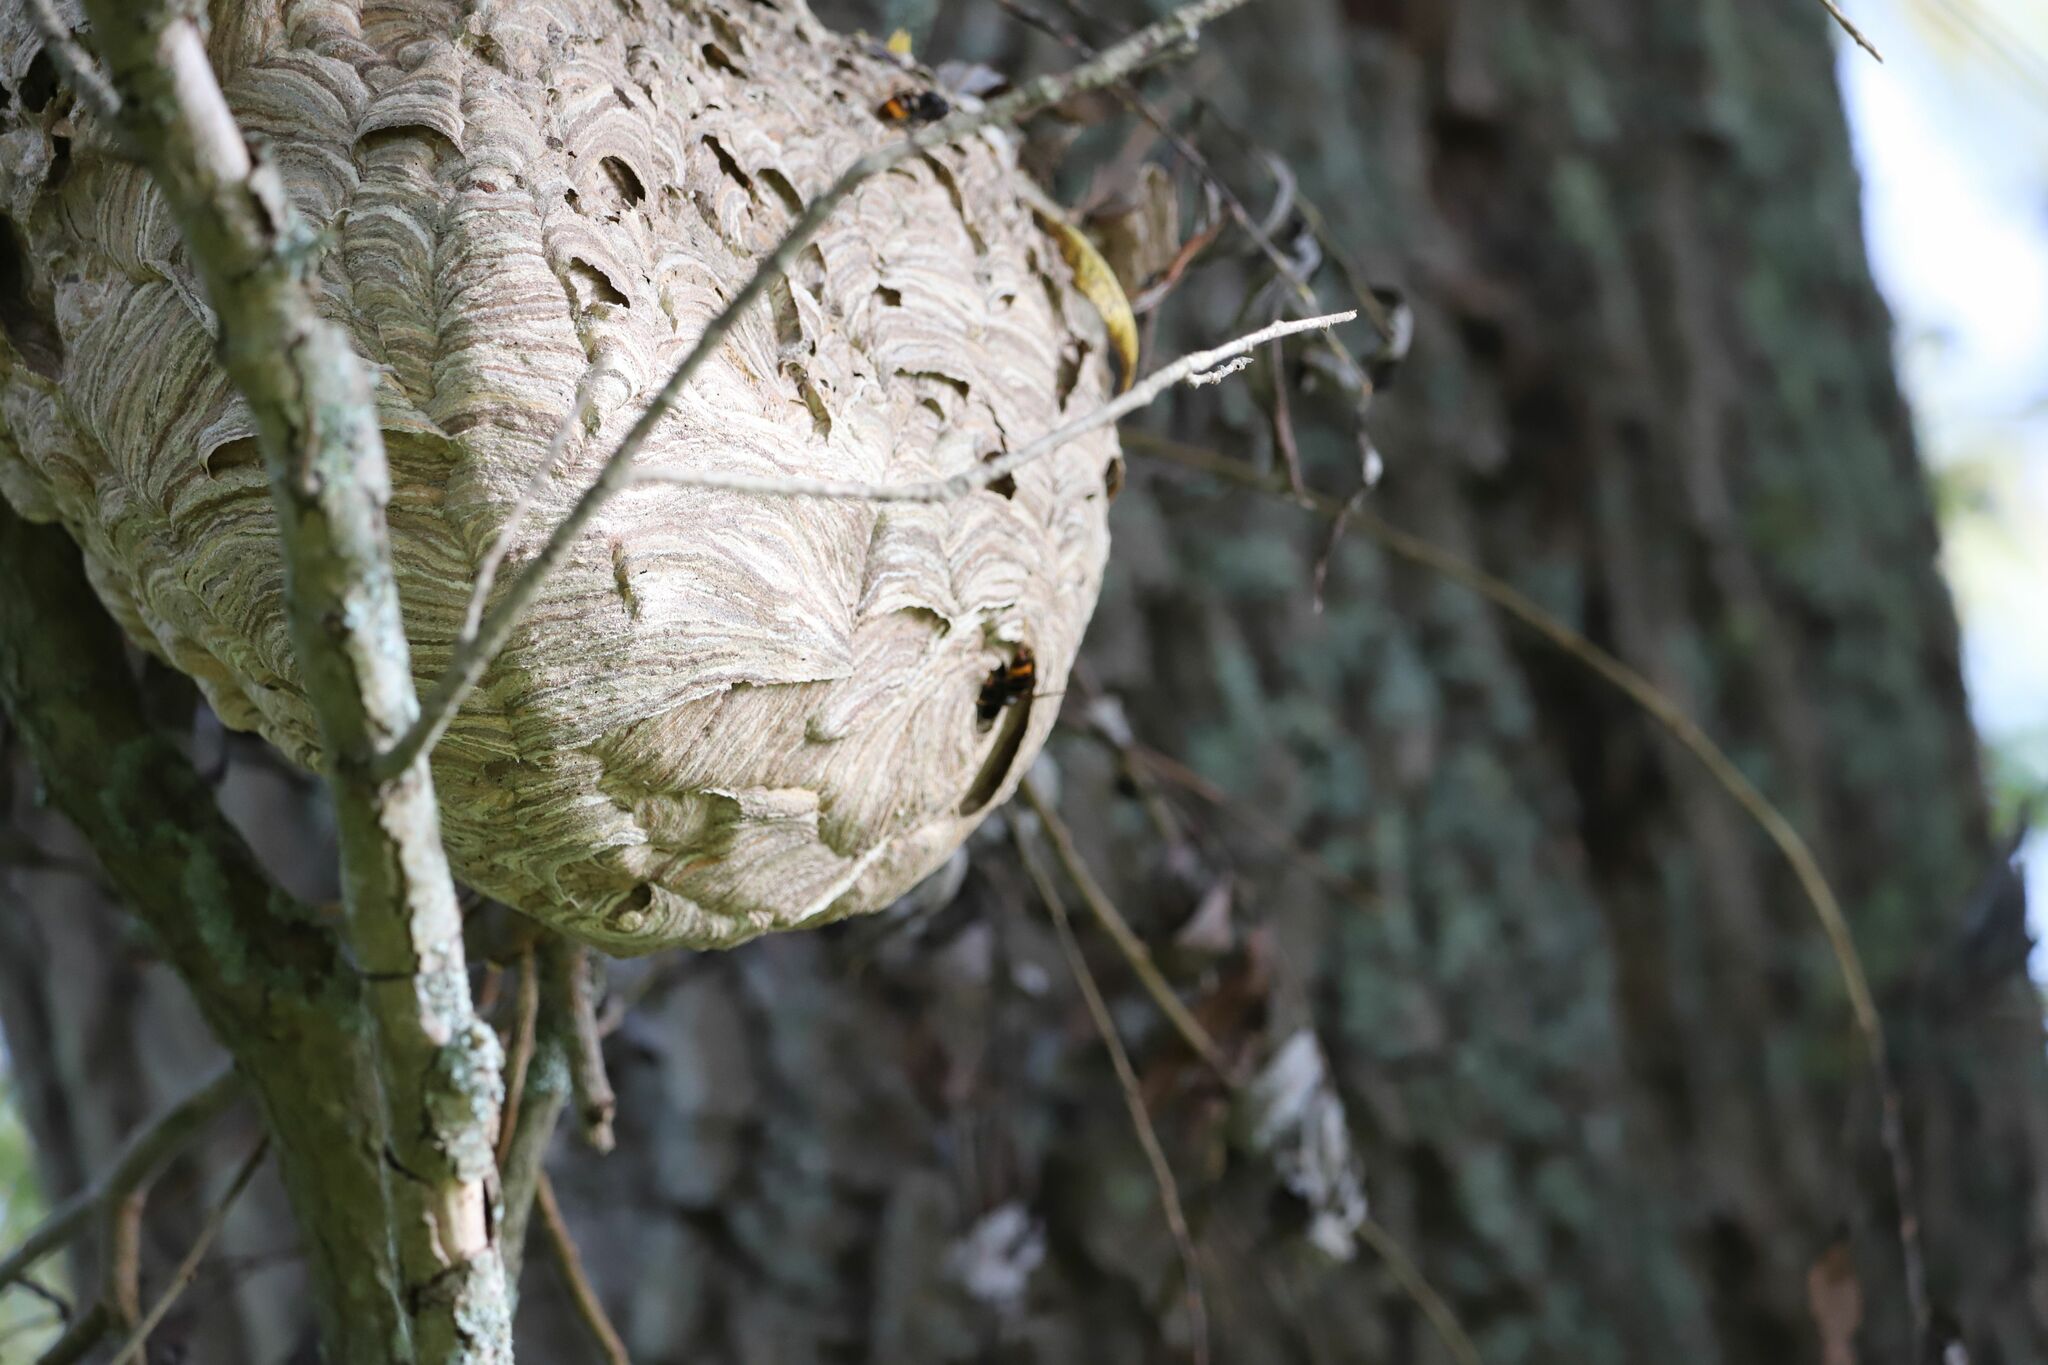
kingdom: Animalia
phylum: Arthropoda
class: Insecta
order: Hymenoptera
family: Vespidae
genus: Vespa
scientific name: Vespa velutina
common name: Asian hornet
